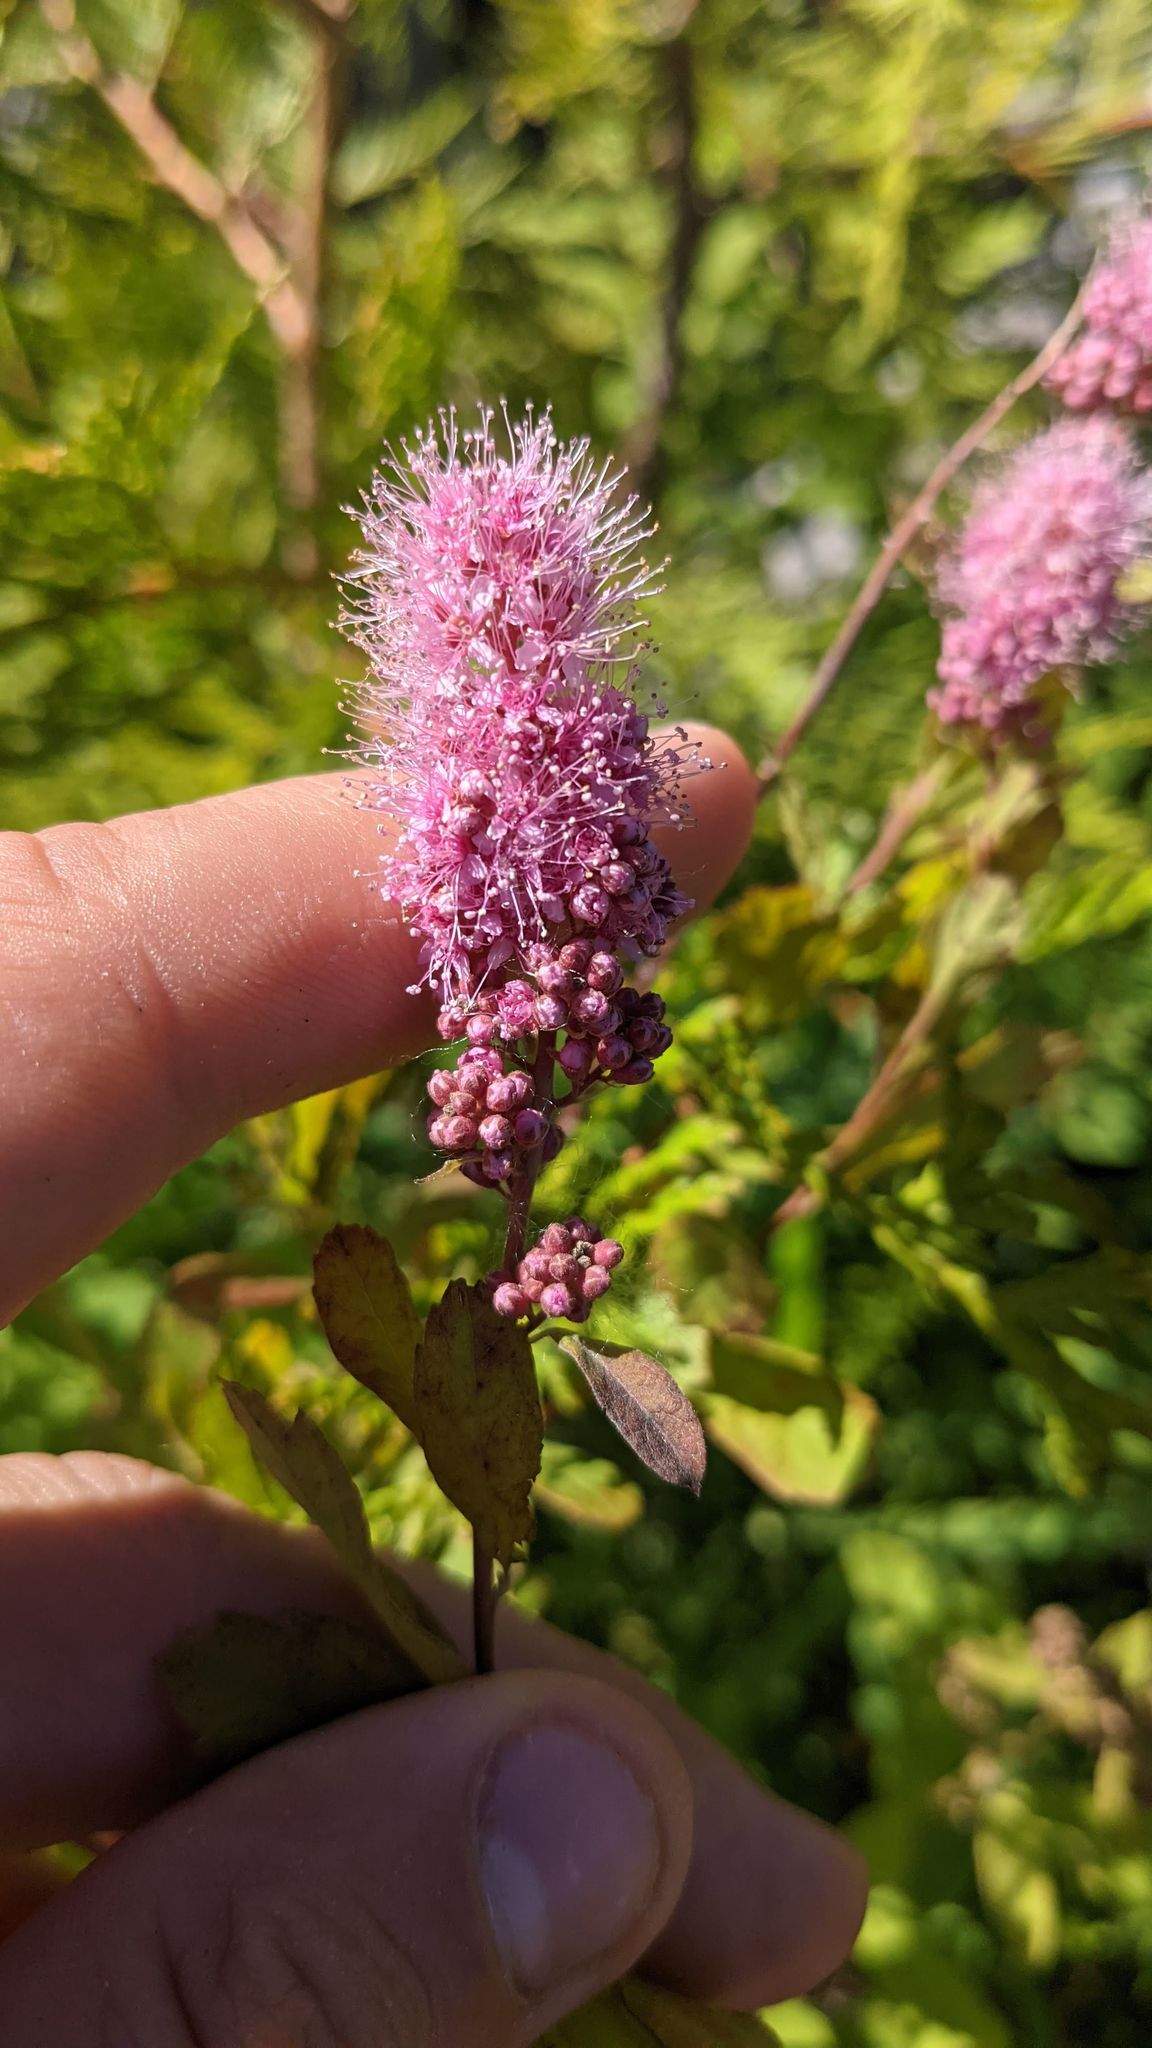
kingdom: Plantae
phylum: Tracheophyta
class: Magnoliopsida
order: Rosales
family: Rosaceae
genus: Spiraea
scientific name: Spiraea douglasii
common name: Steeplebush
